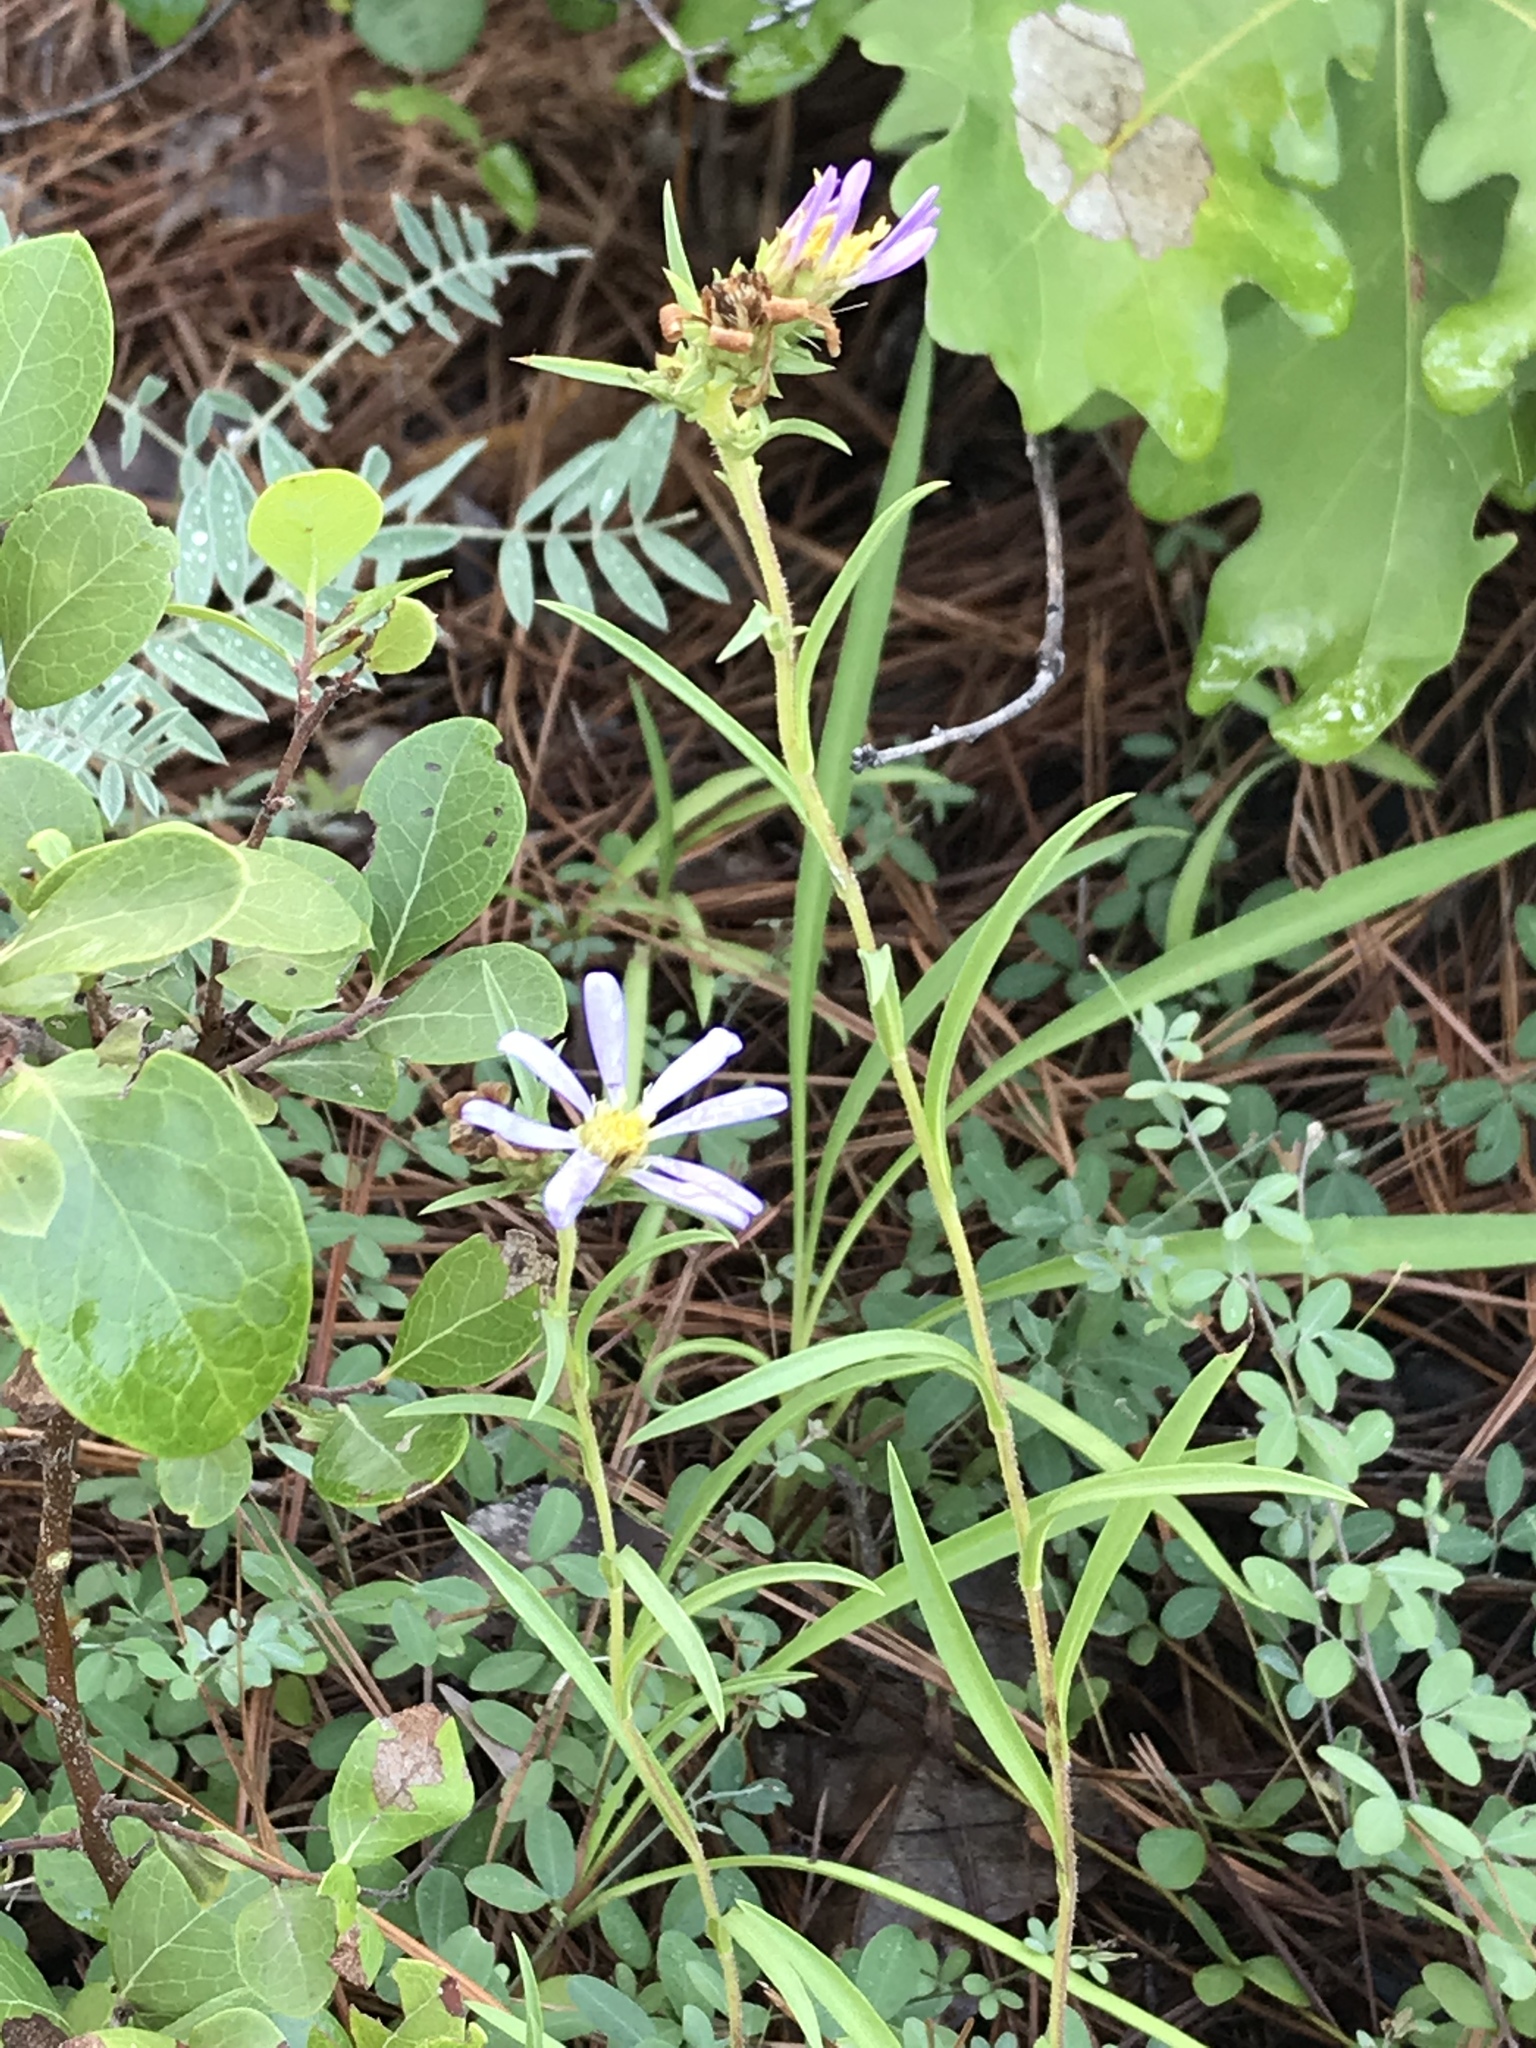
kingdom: Plantae
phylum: Tracheophyta
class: Magnoliopsida
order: Asterales
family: Asteraceae
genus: Eurybia
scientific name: Eurybia hemispherica
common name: Showy aster
